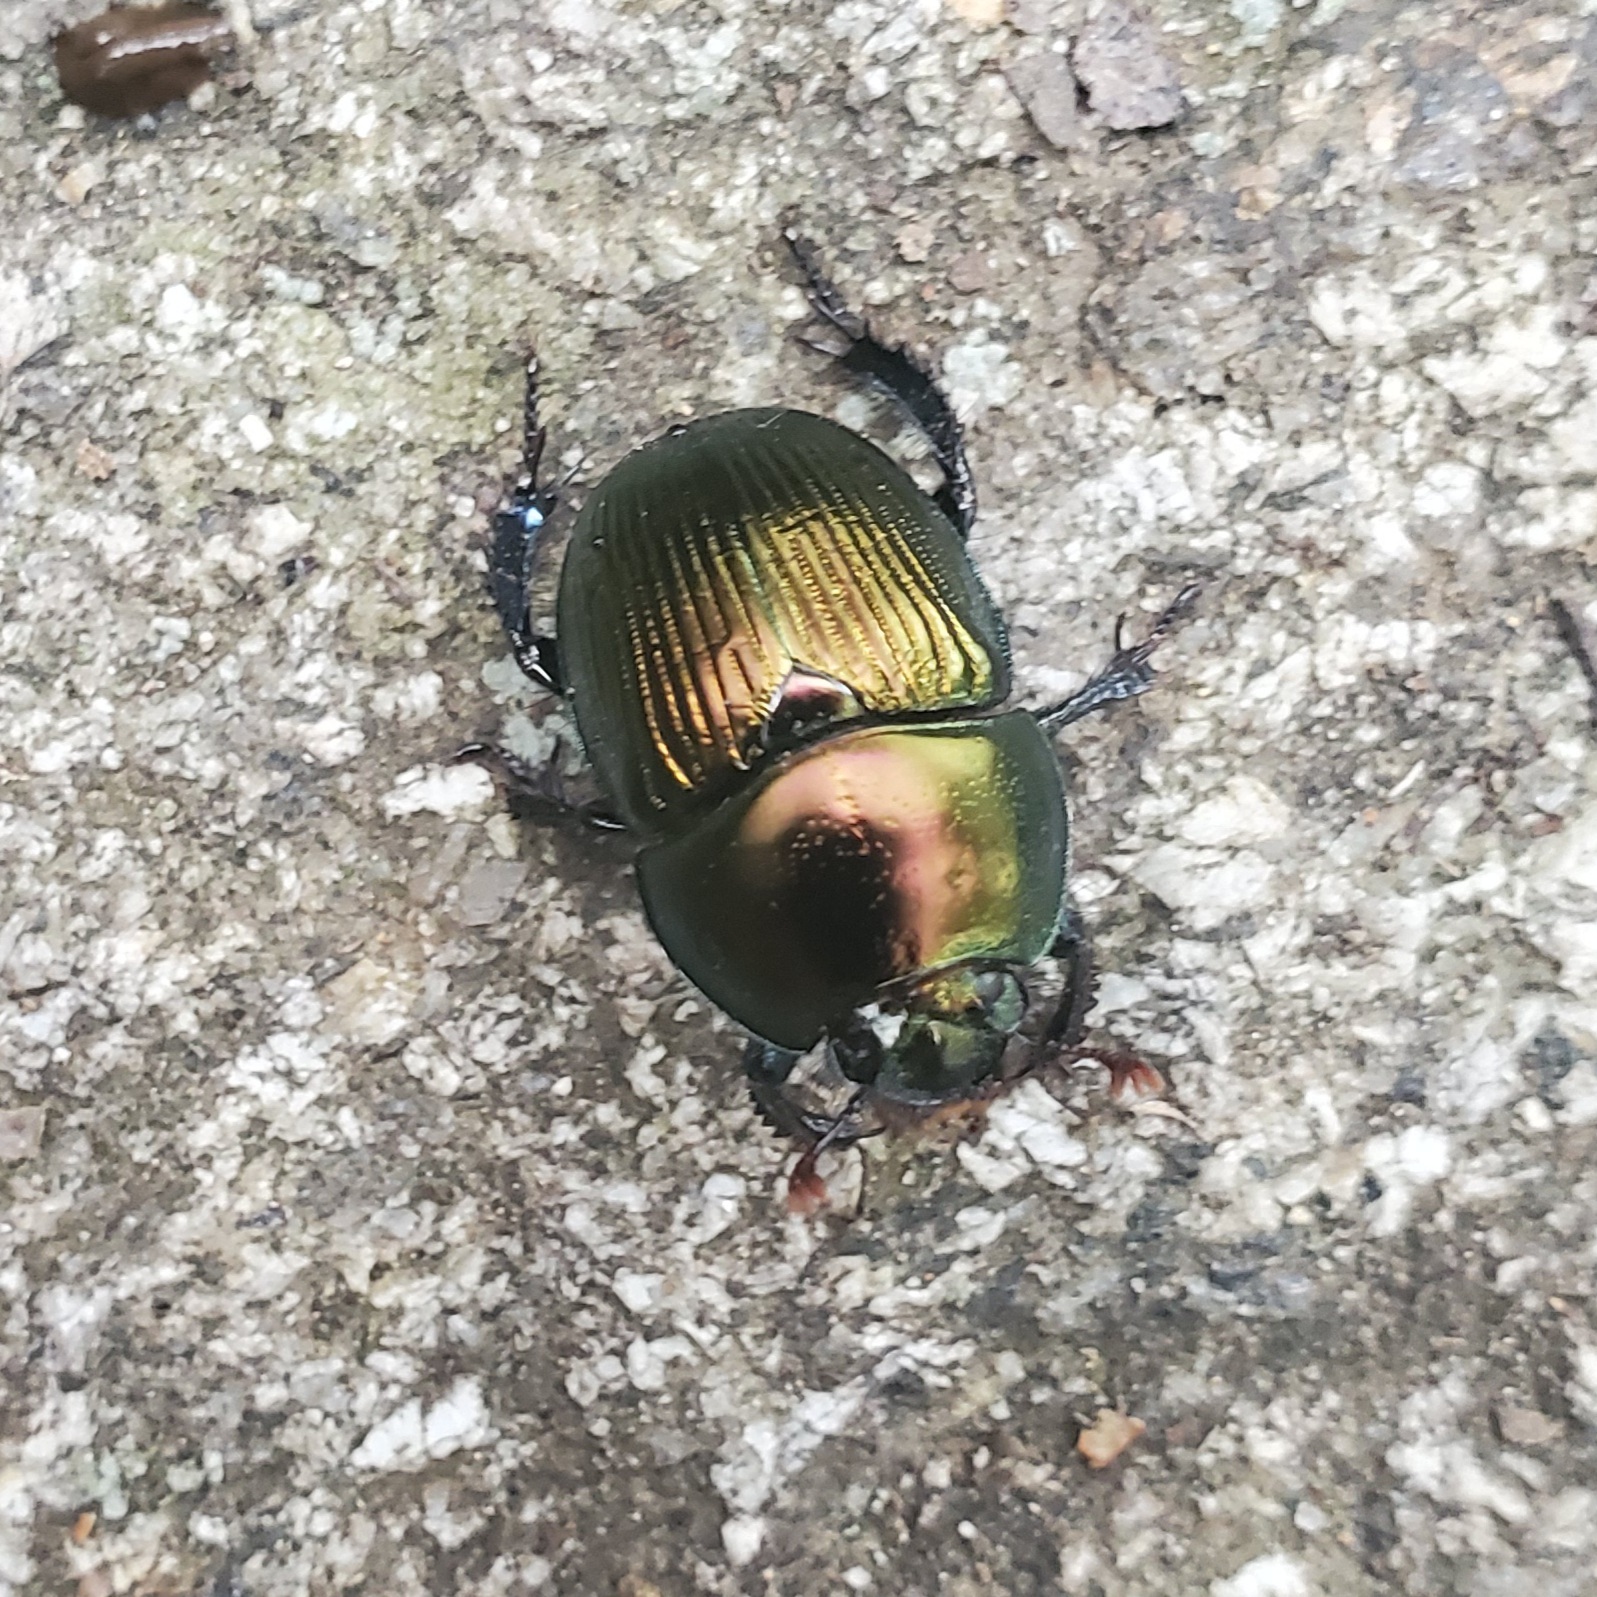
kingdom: Animalia
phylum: Arthropoda
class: Insecta
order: Coleoptera
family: Geotrupidae
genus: Geotrupes
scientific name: Geotrupes splendidus
